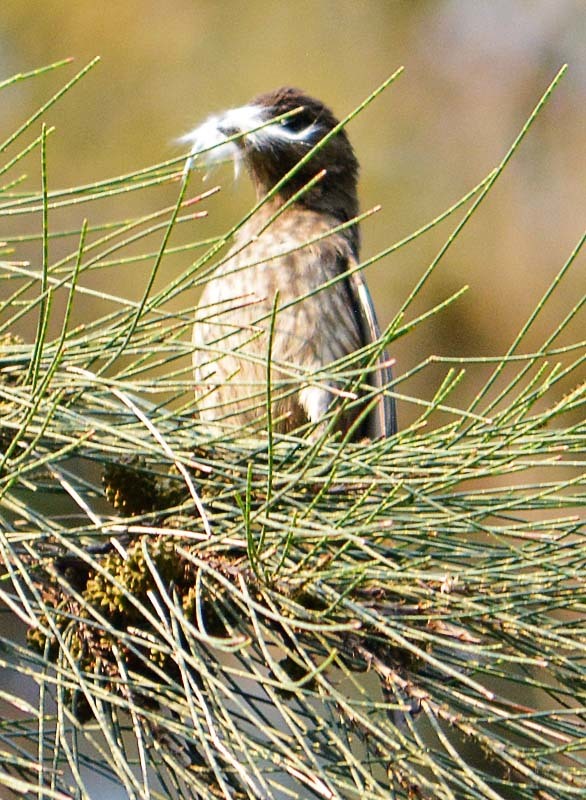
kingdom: Animalia
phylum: Chordata
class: Aves
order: Passeriformes
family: Fringillidae
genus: Haemorhous
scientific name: Haemorhous mexicanus
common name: House finch
